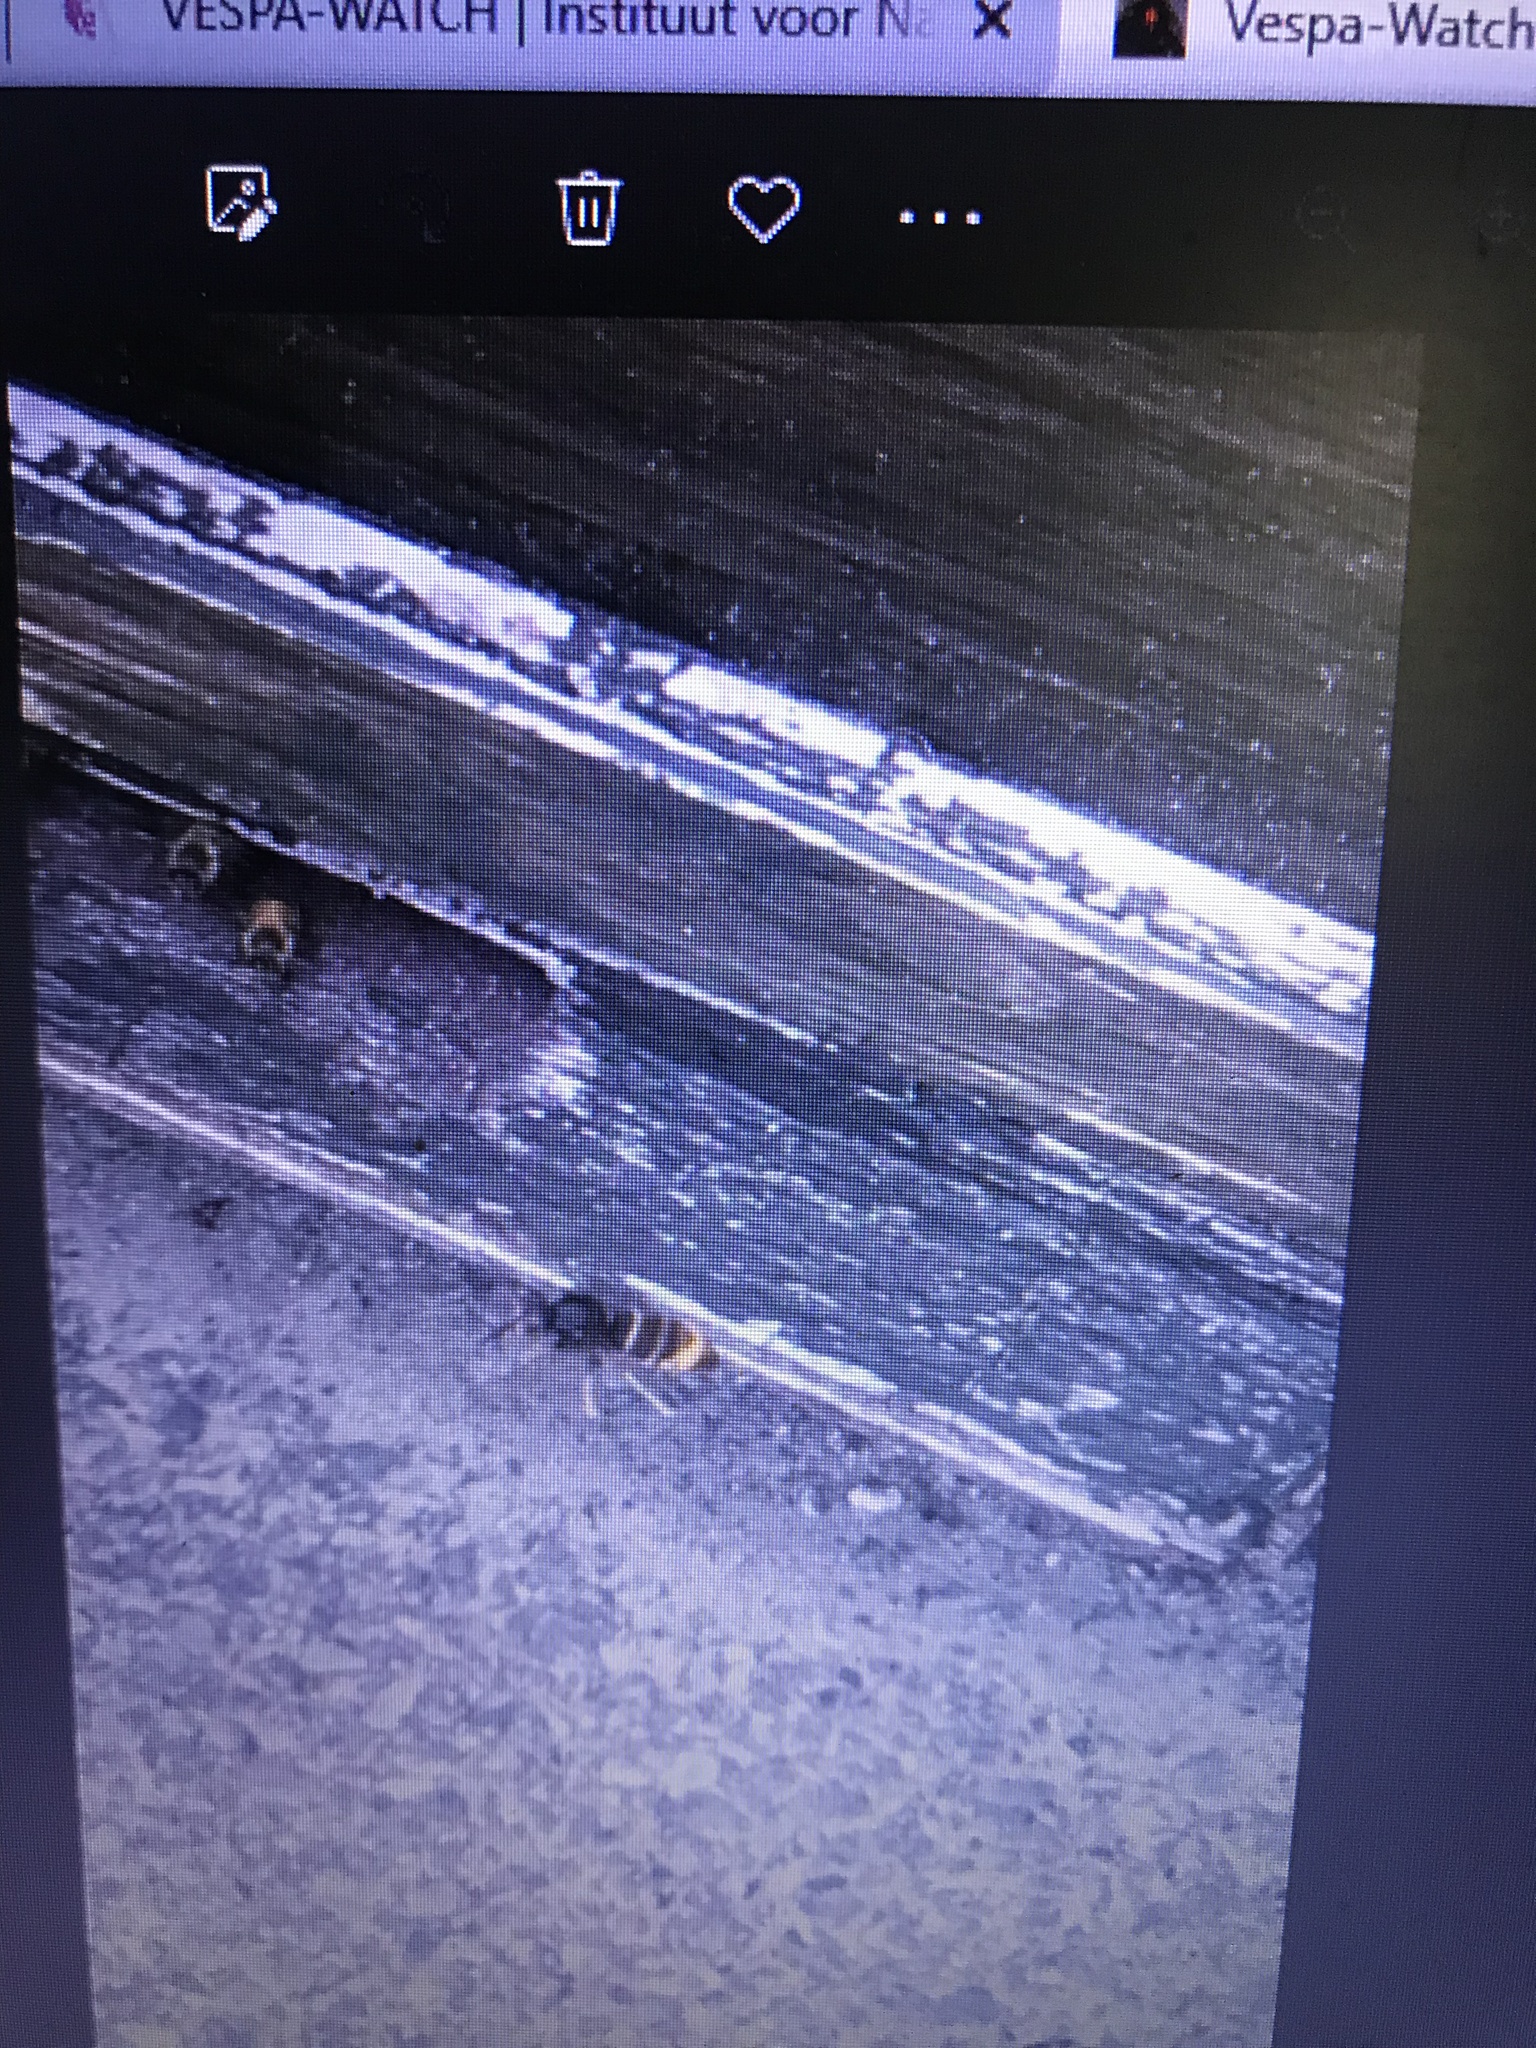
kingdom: Animalia
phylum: Arthropoda
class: Insecta
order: Hymenoptera
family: Vespidae
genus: Vespa
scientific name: Vespa velutina
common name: Asian hornet
